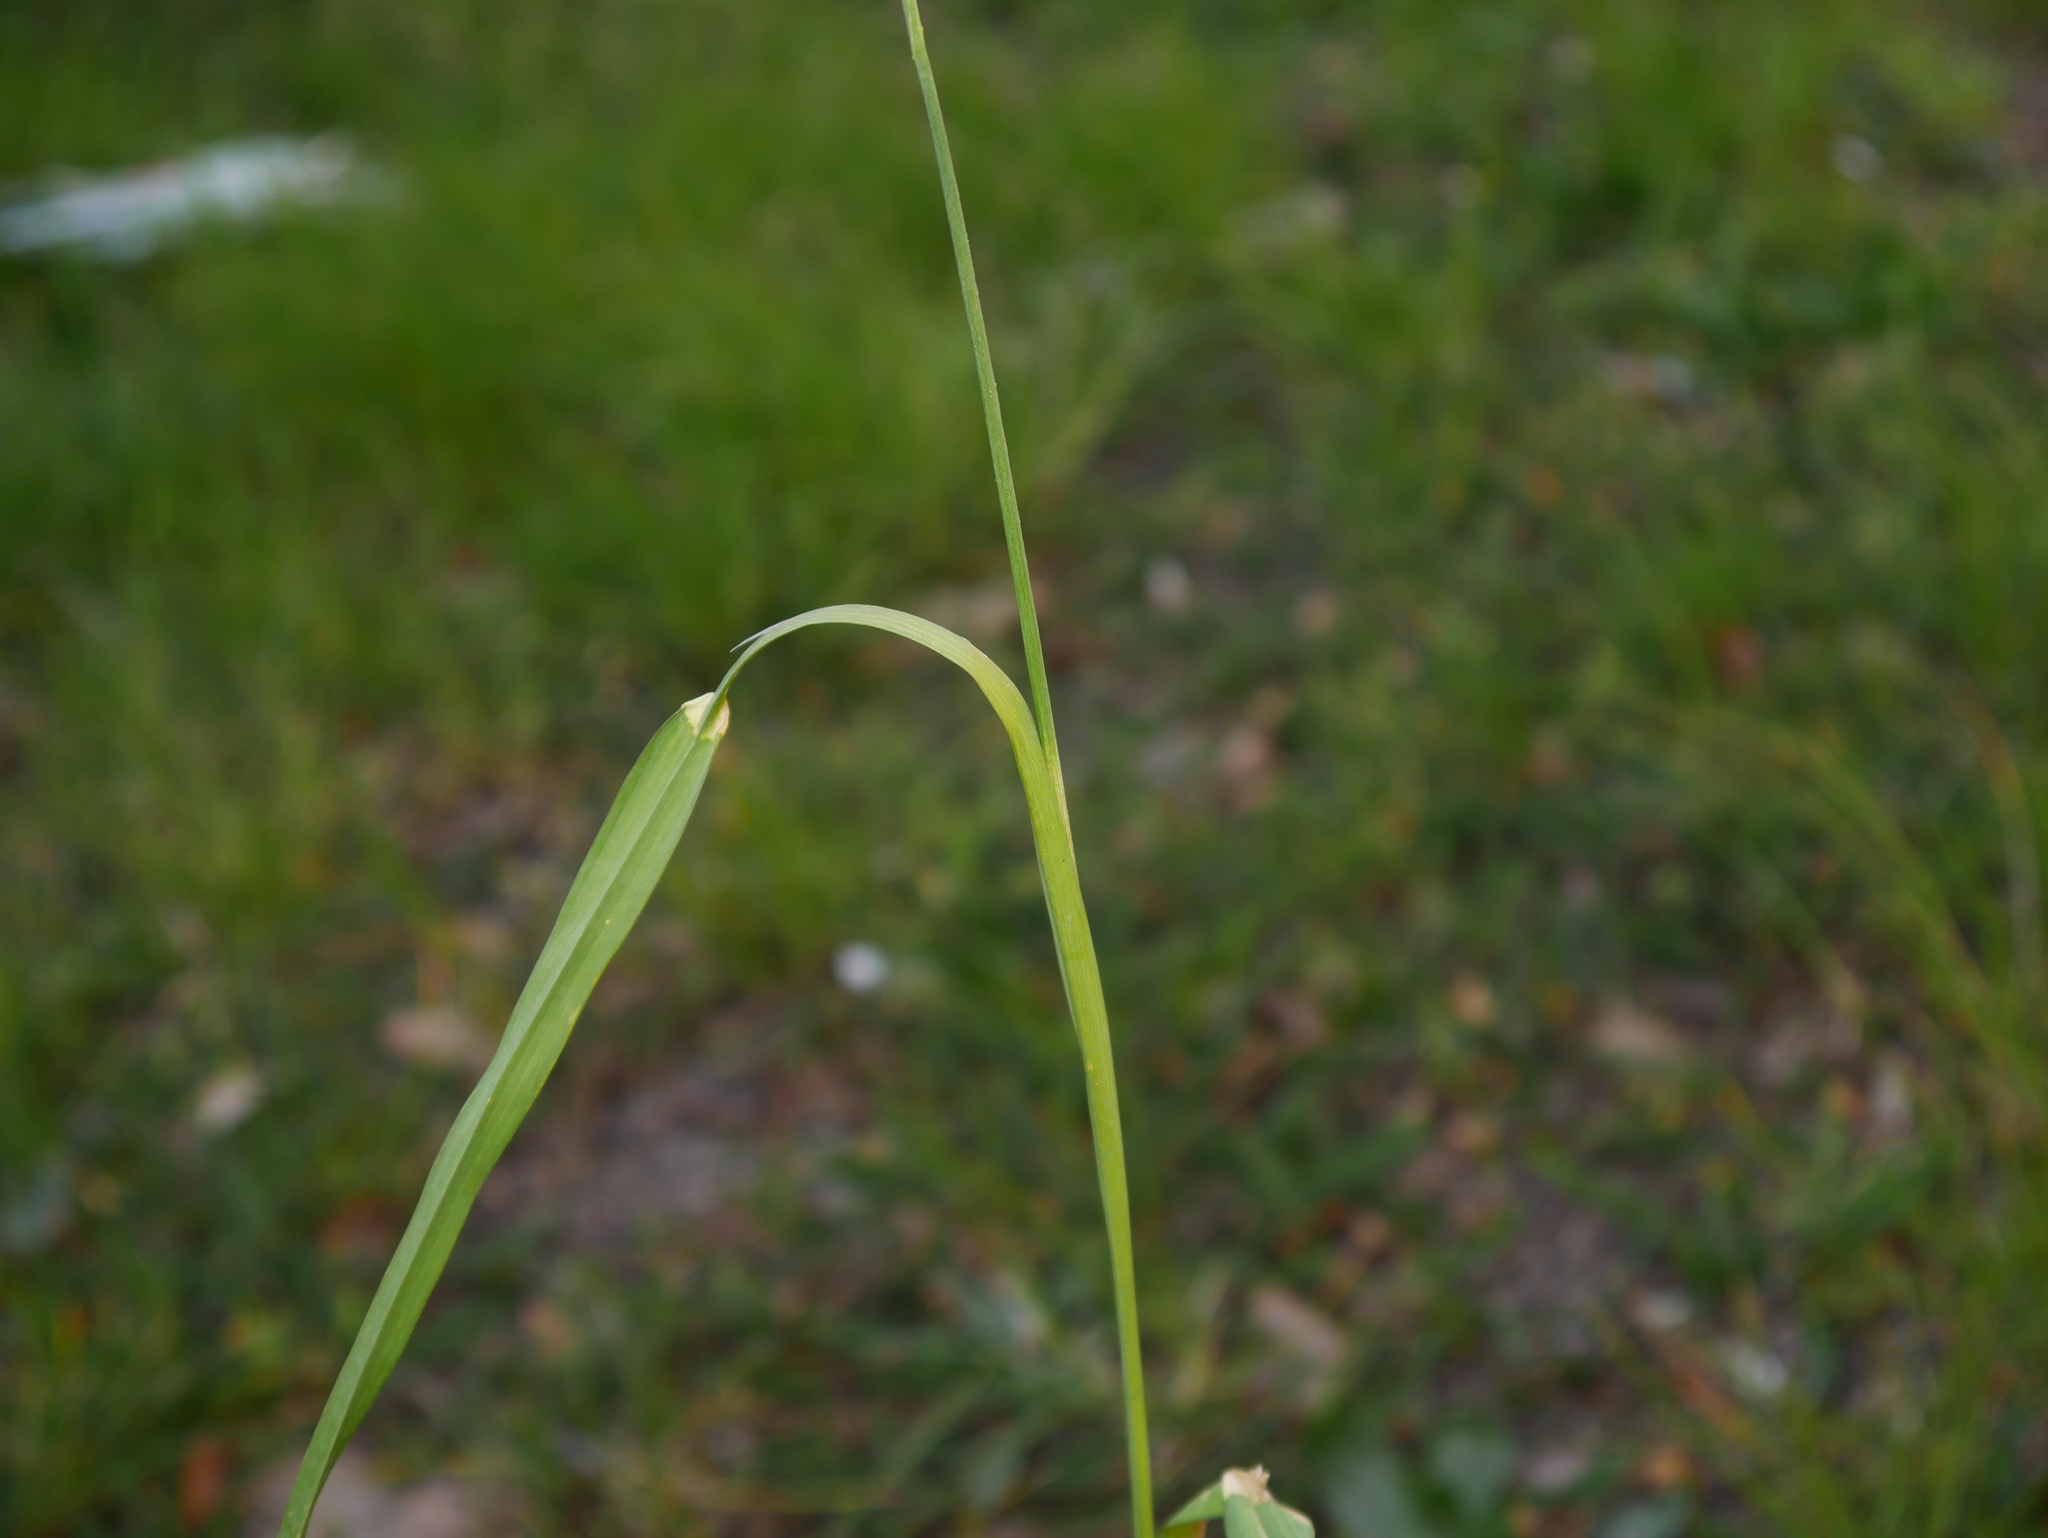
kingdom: Plantae
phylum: Tracheophyta
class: Liliopsida
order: Poales
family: Poaceae
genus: Dactylis
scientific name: Dactylis glomerata
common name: Orchardgrass
